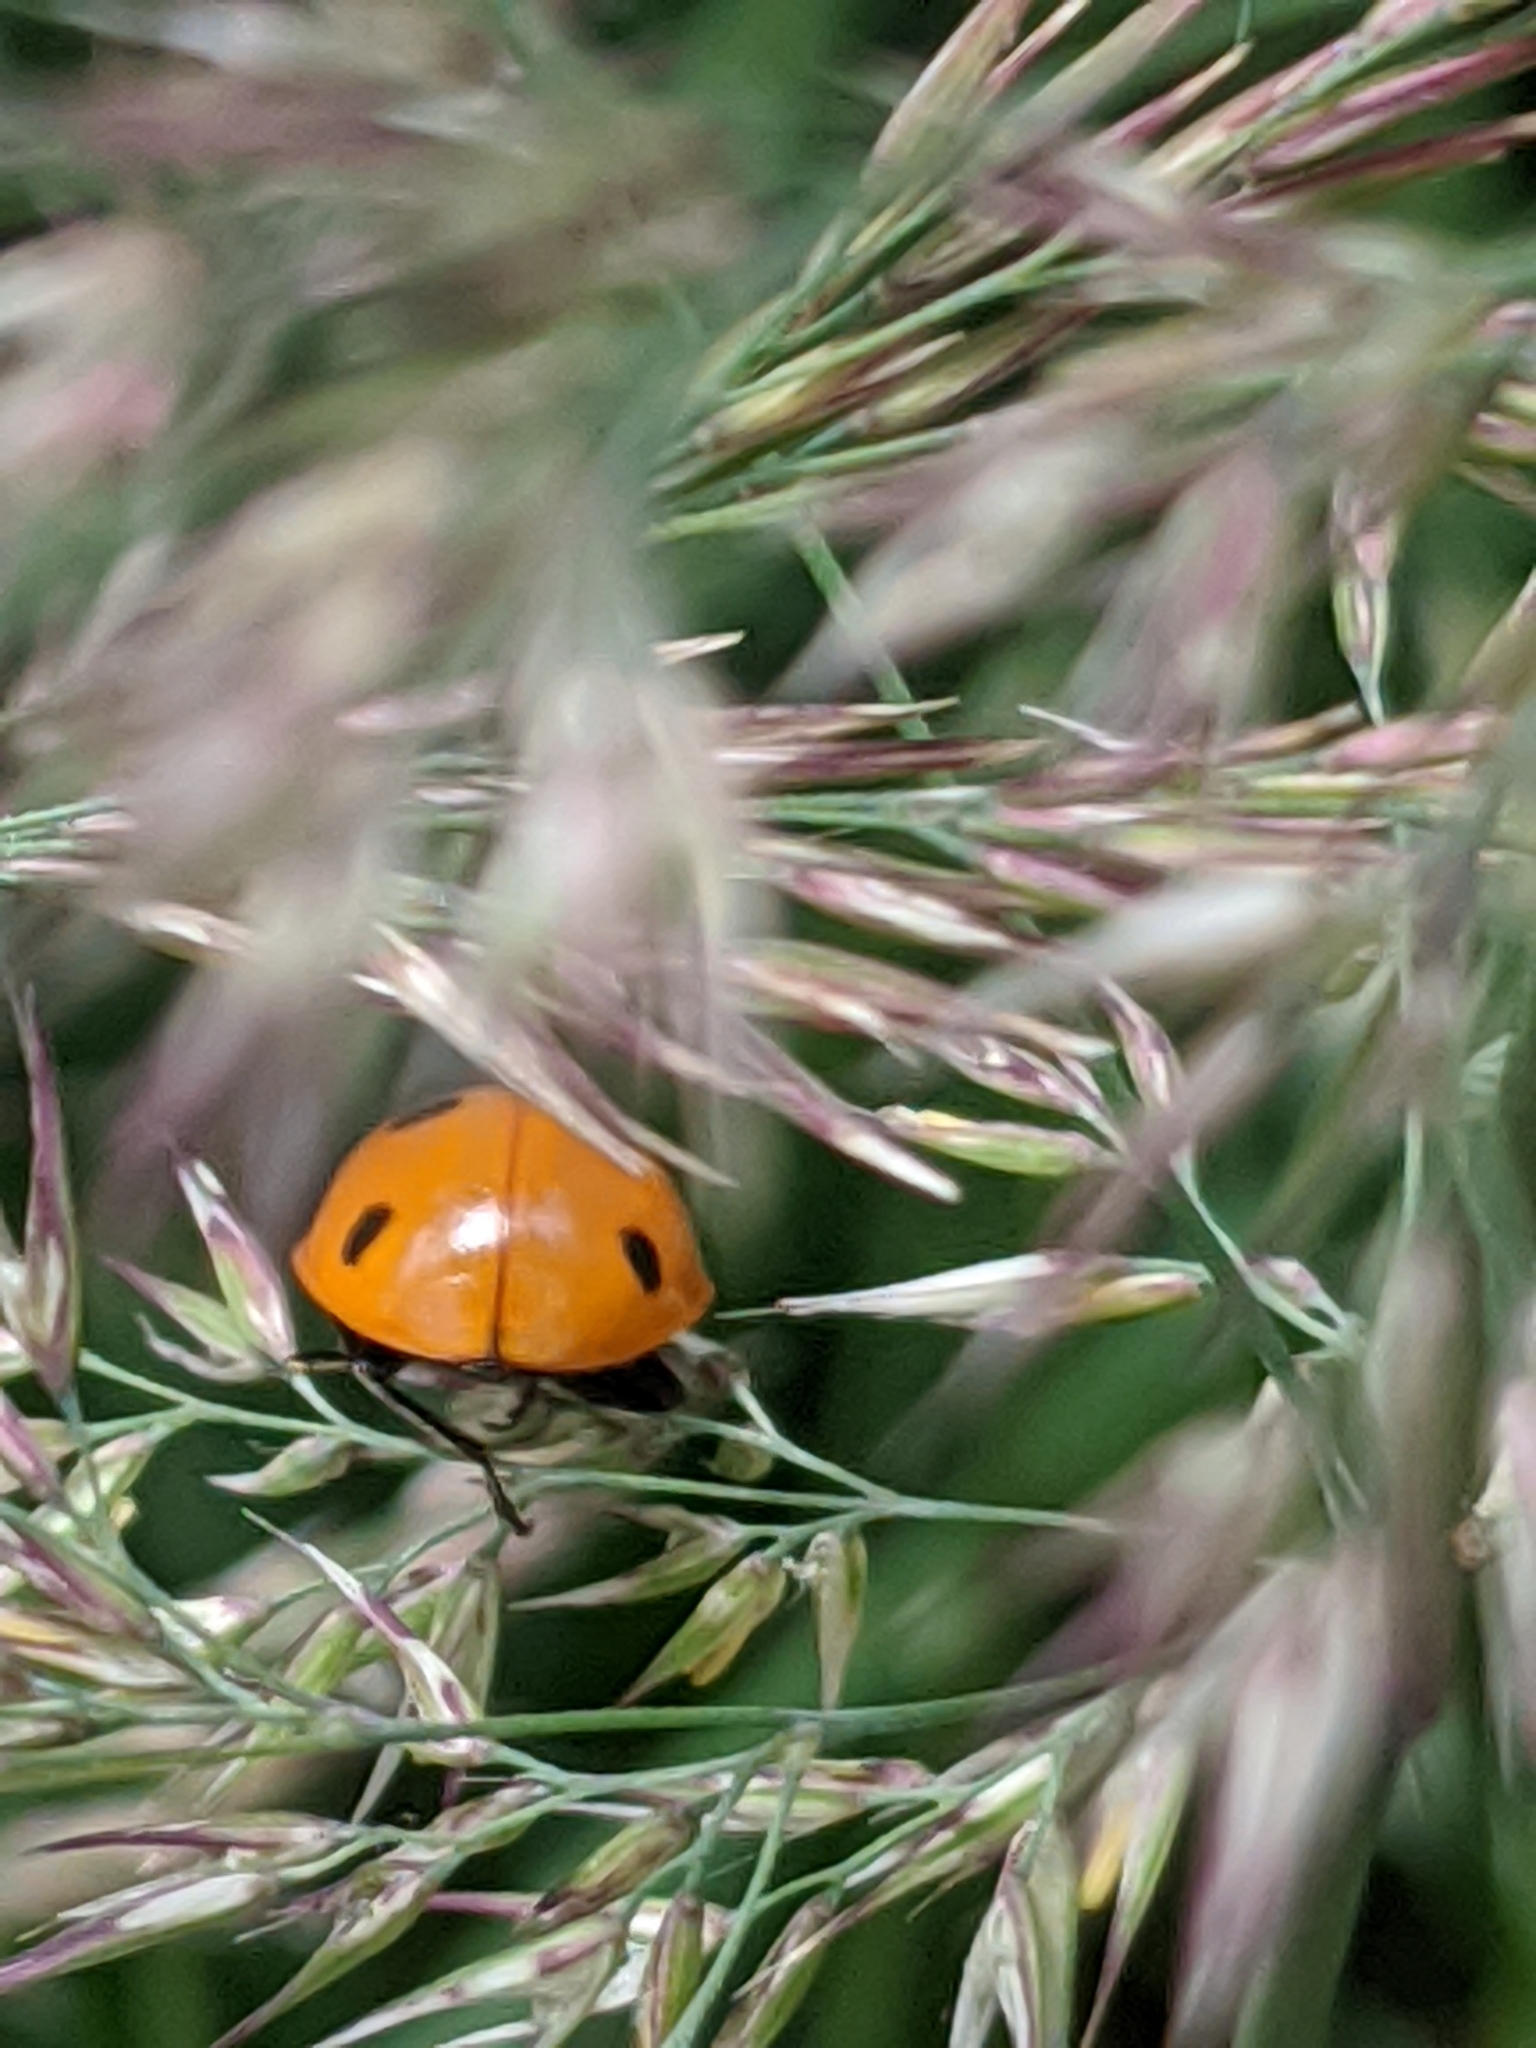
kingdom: Animalia
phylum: Arthropoda
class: Insecta
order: Coleoptera
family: Coccinellidae
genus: Coccinella
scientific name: Coccinella septempunctata
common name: Sevenspotted lady beetle
